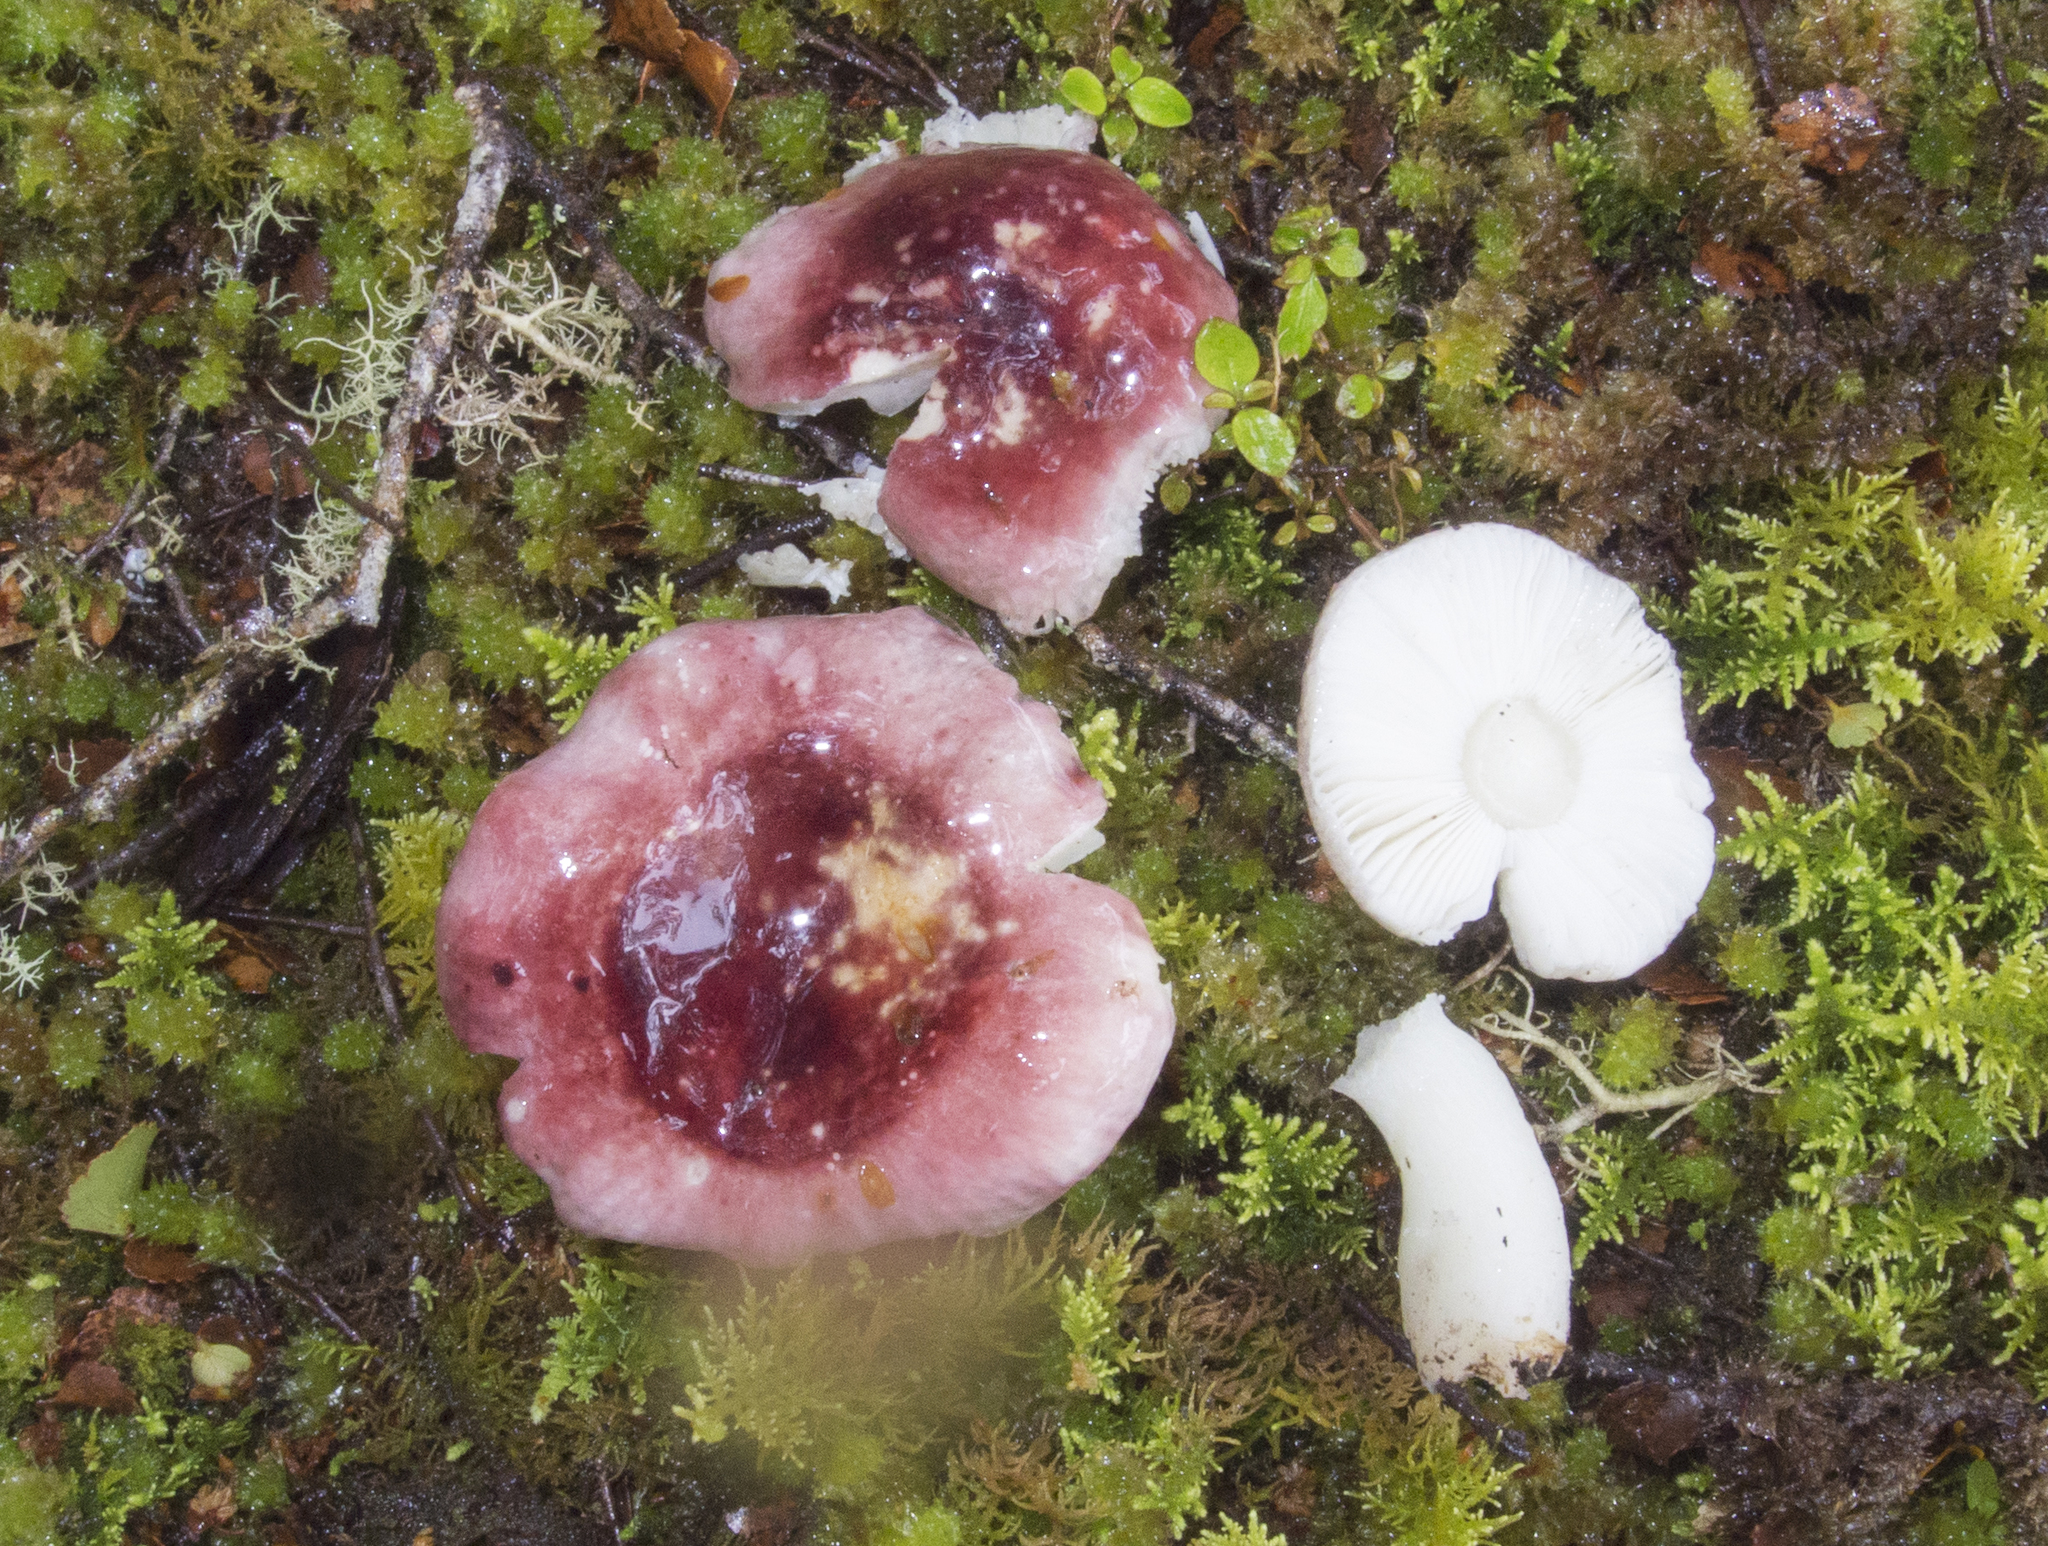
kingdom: Fungi
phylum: Basidiomycota
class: Agaricomycetes
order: Russulales
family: Russulaceae
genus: Russula
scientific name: Russula roseopileata
